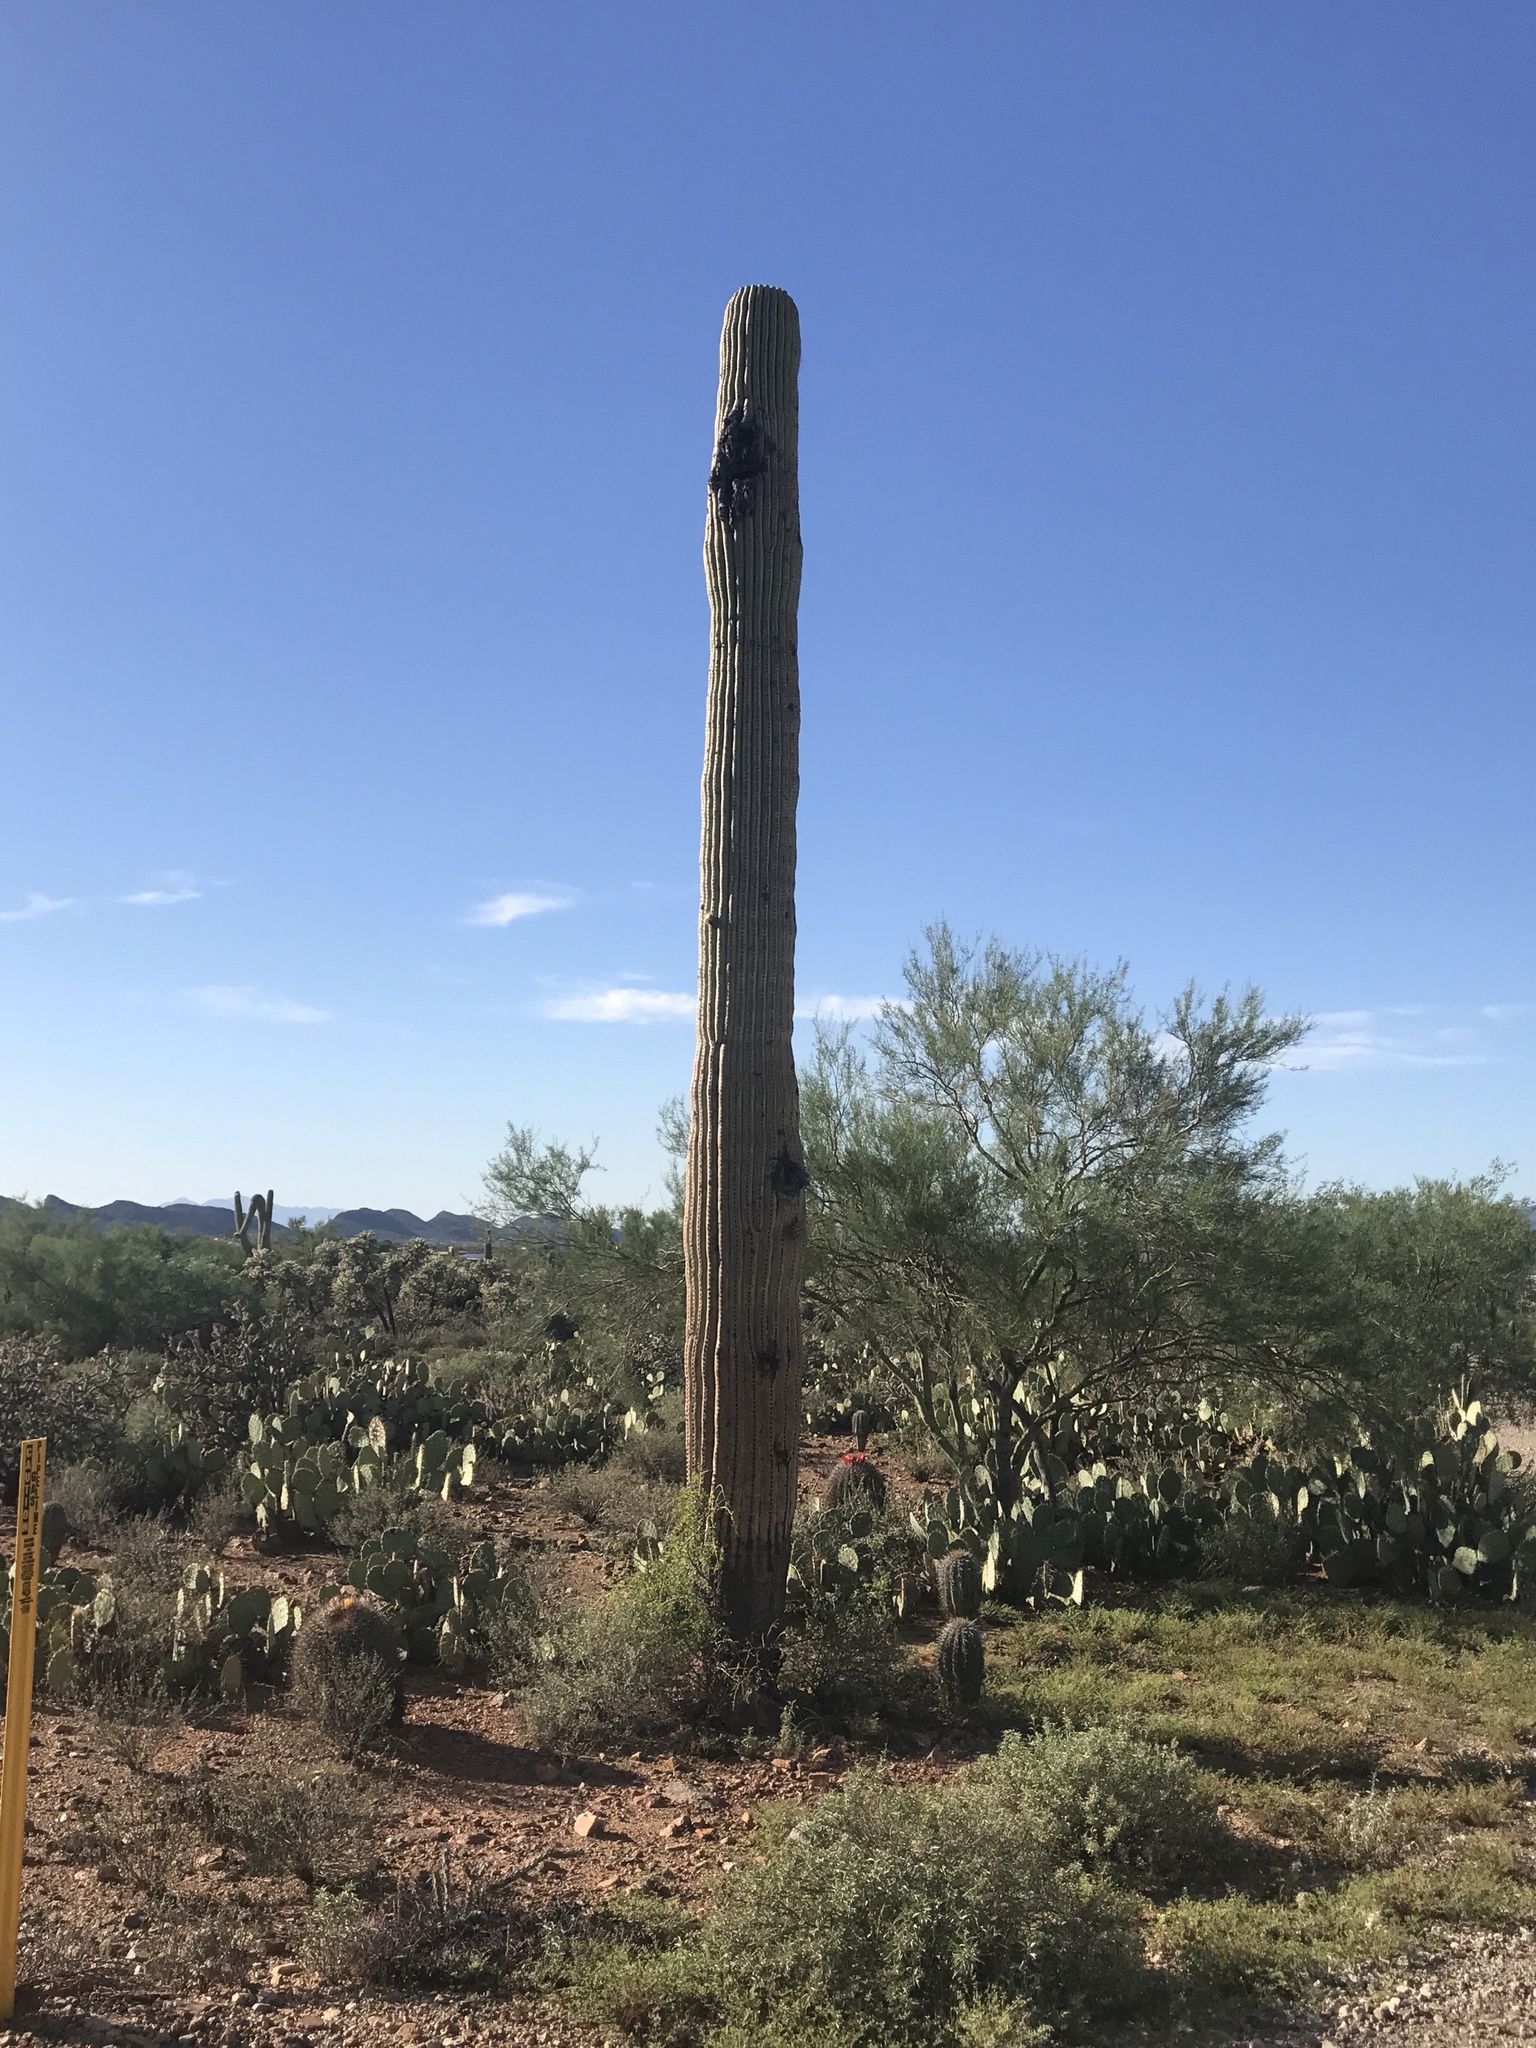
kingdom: Plantae
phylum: Tracheophyta
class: Magnoliopsida
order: Caryophyllales
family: Cactaceae
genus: Carnegiea
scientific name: Carnegiea gigantea
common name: Saguaro
